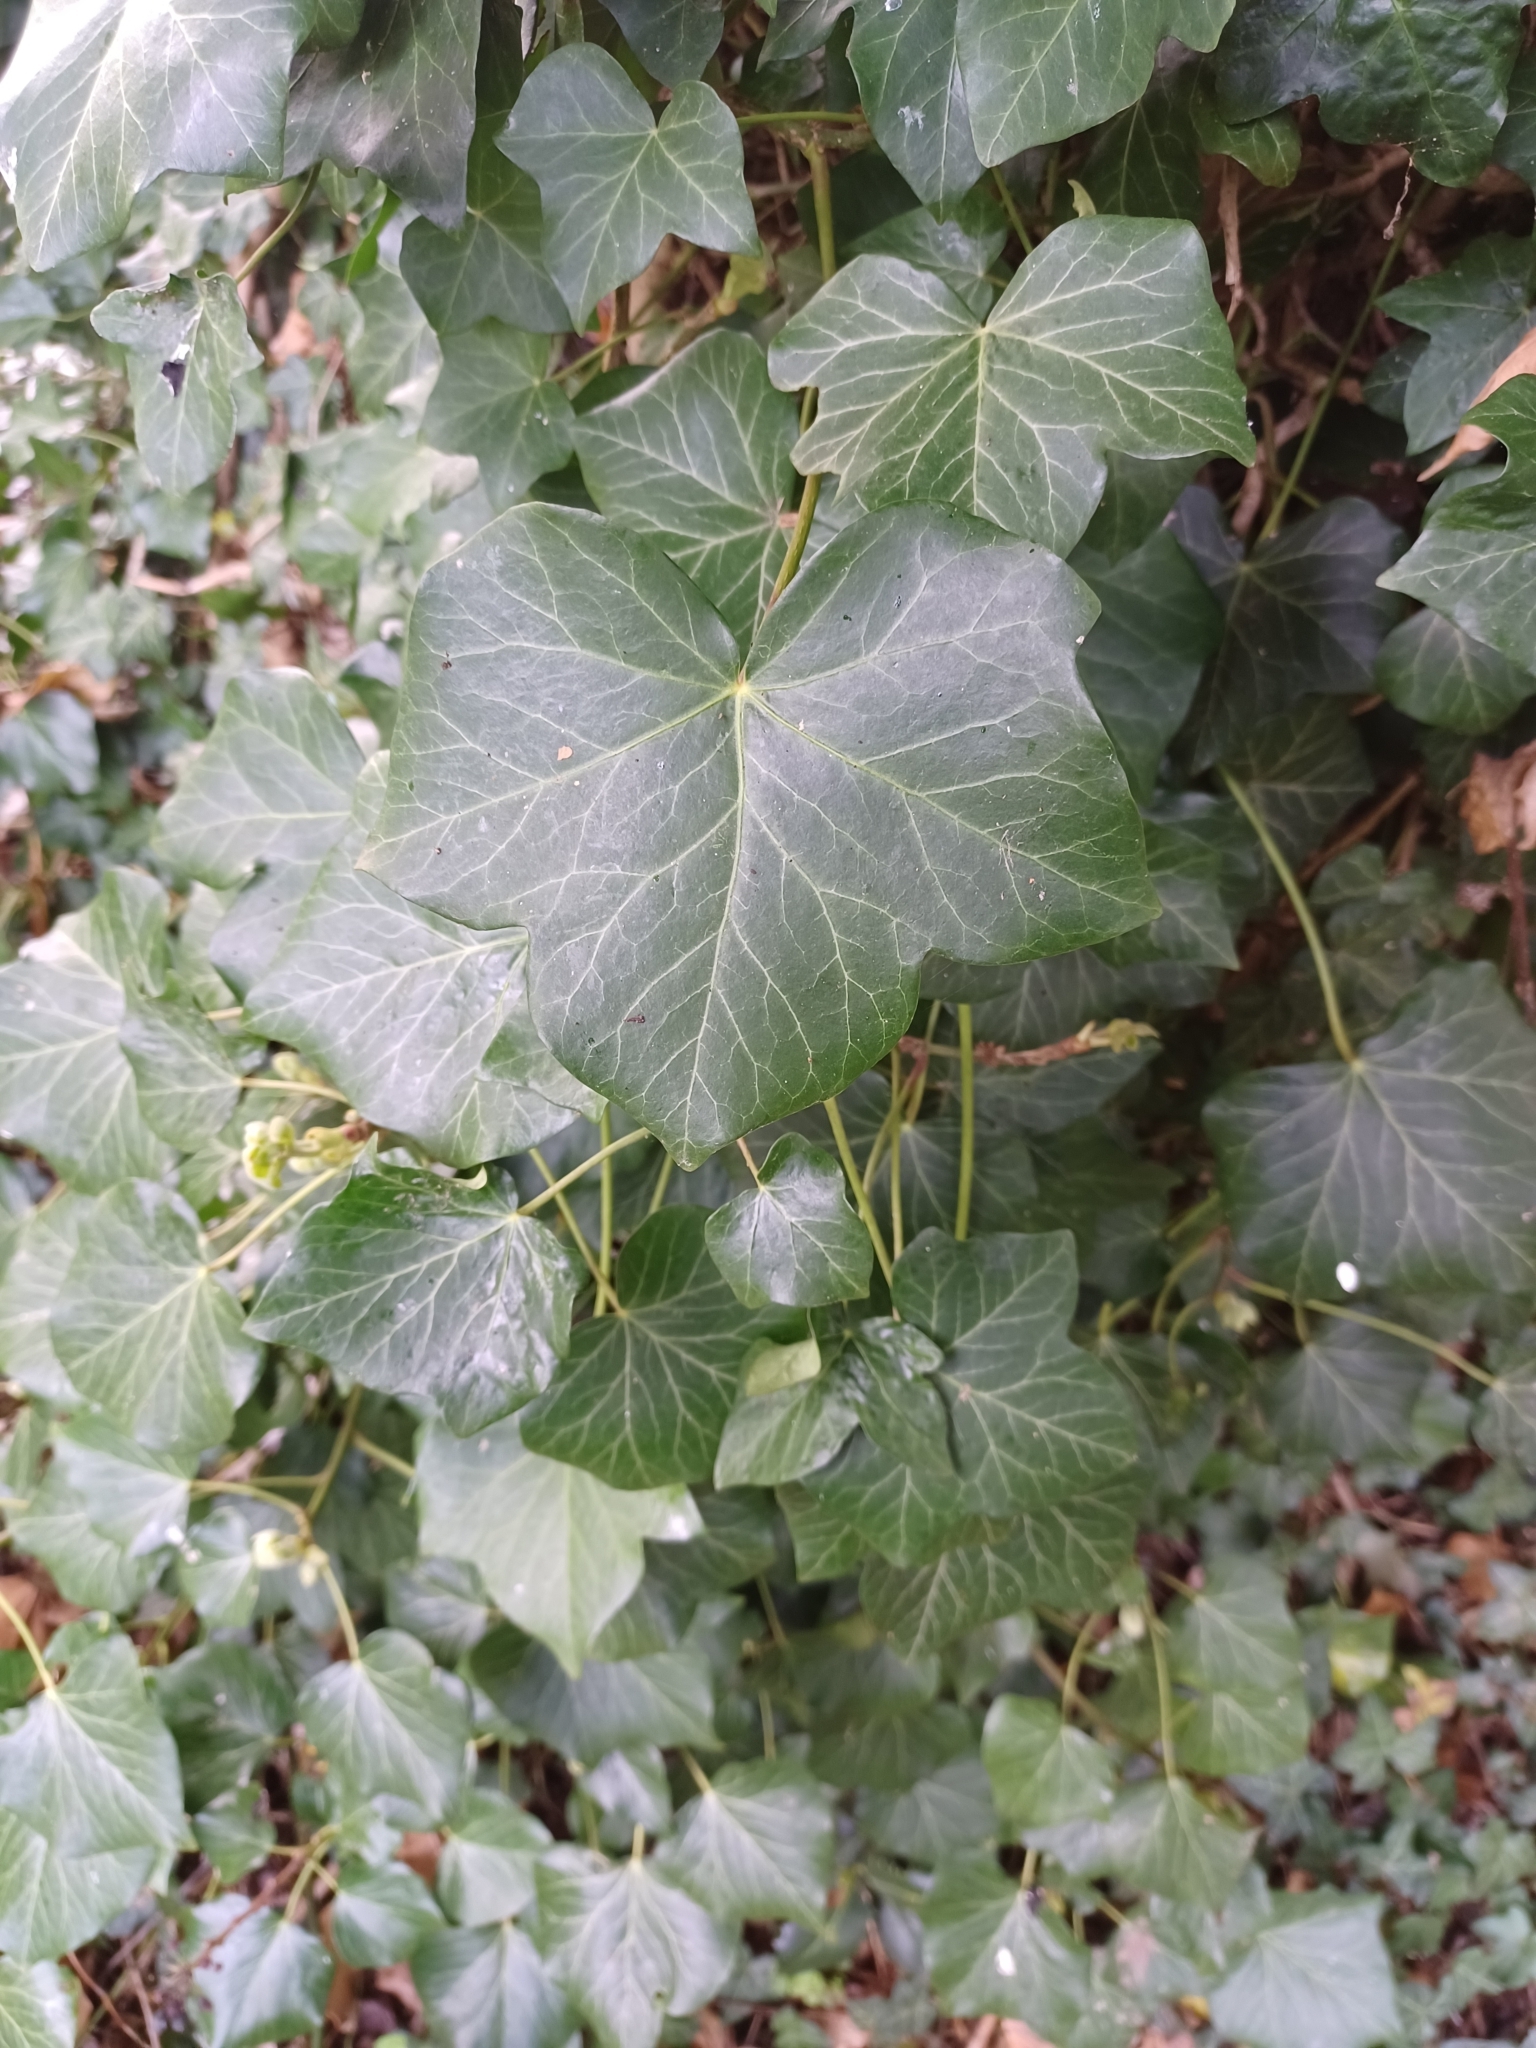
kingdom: Plantae
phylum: Tracheophyta
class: Magnoliopsida
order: Apiales
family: Araliaceae
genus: Hedera
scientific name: Hedera helix
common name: Ivy
